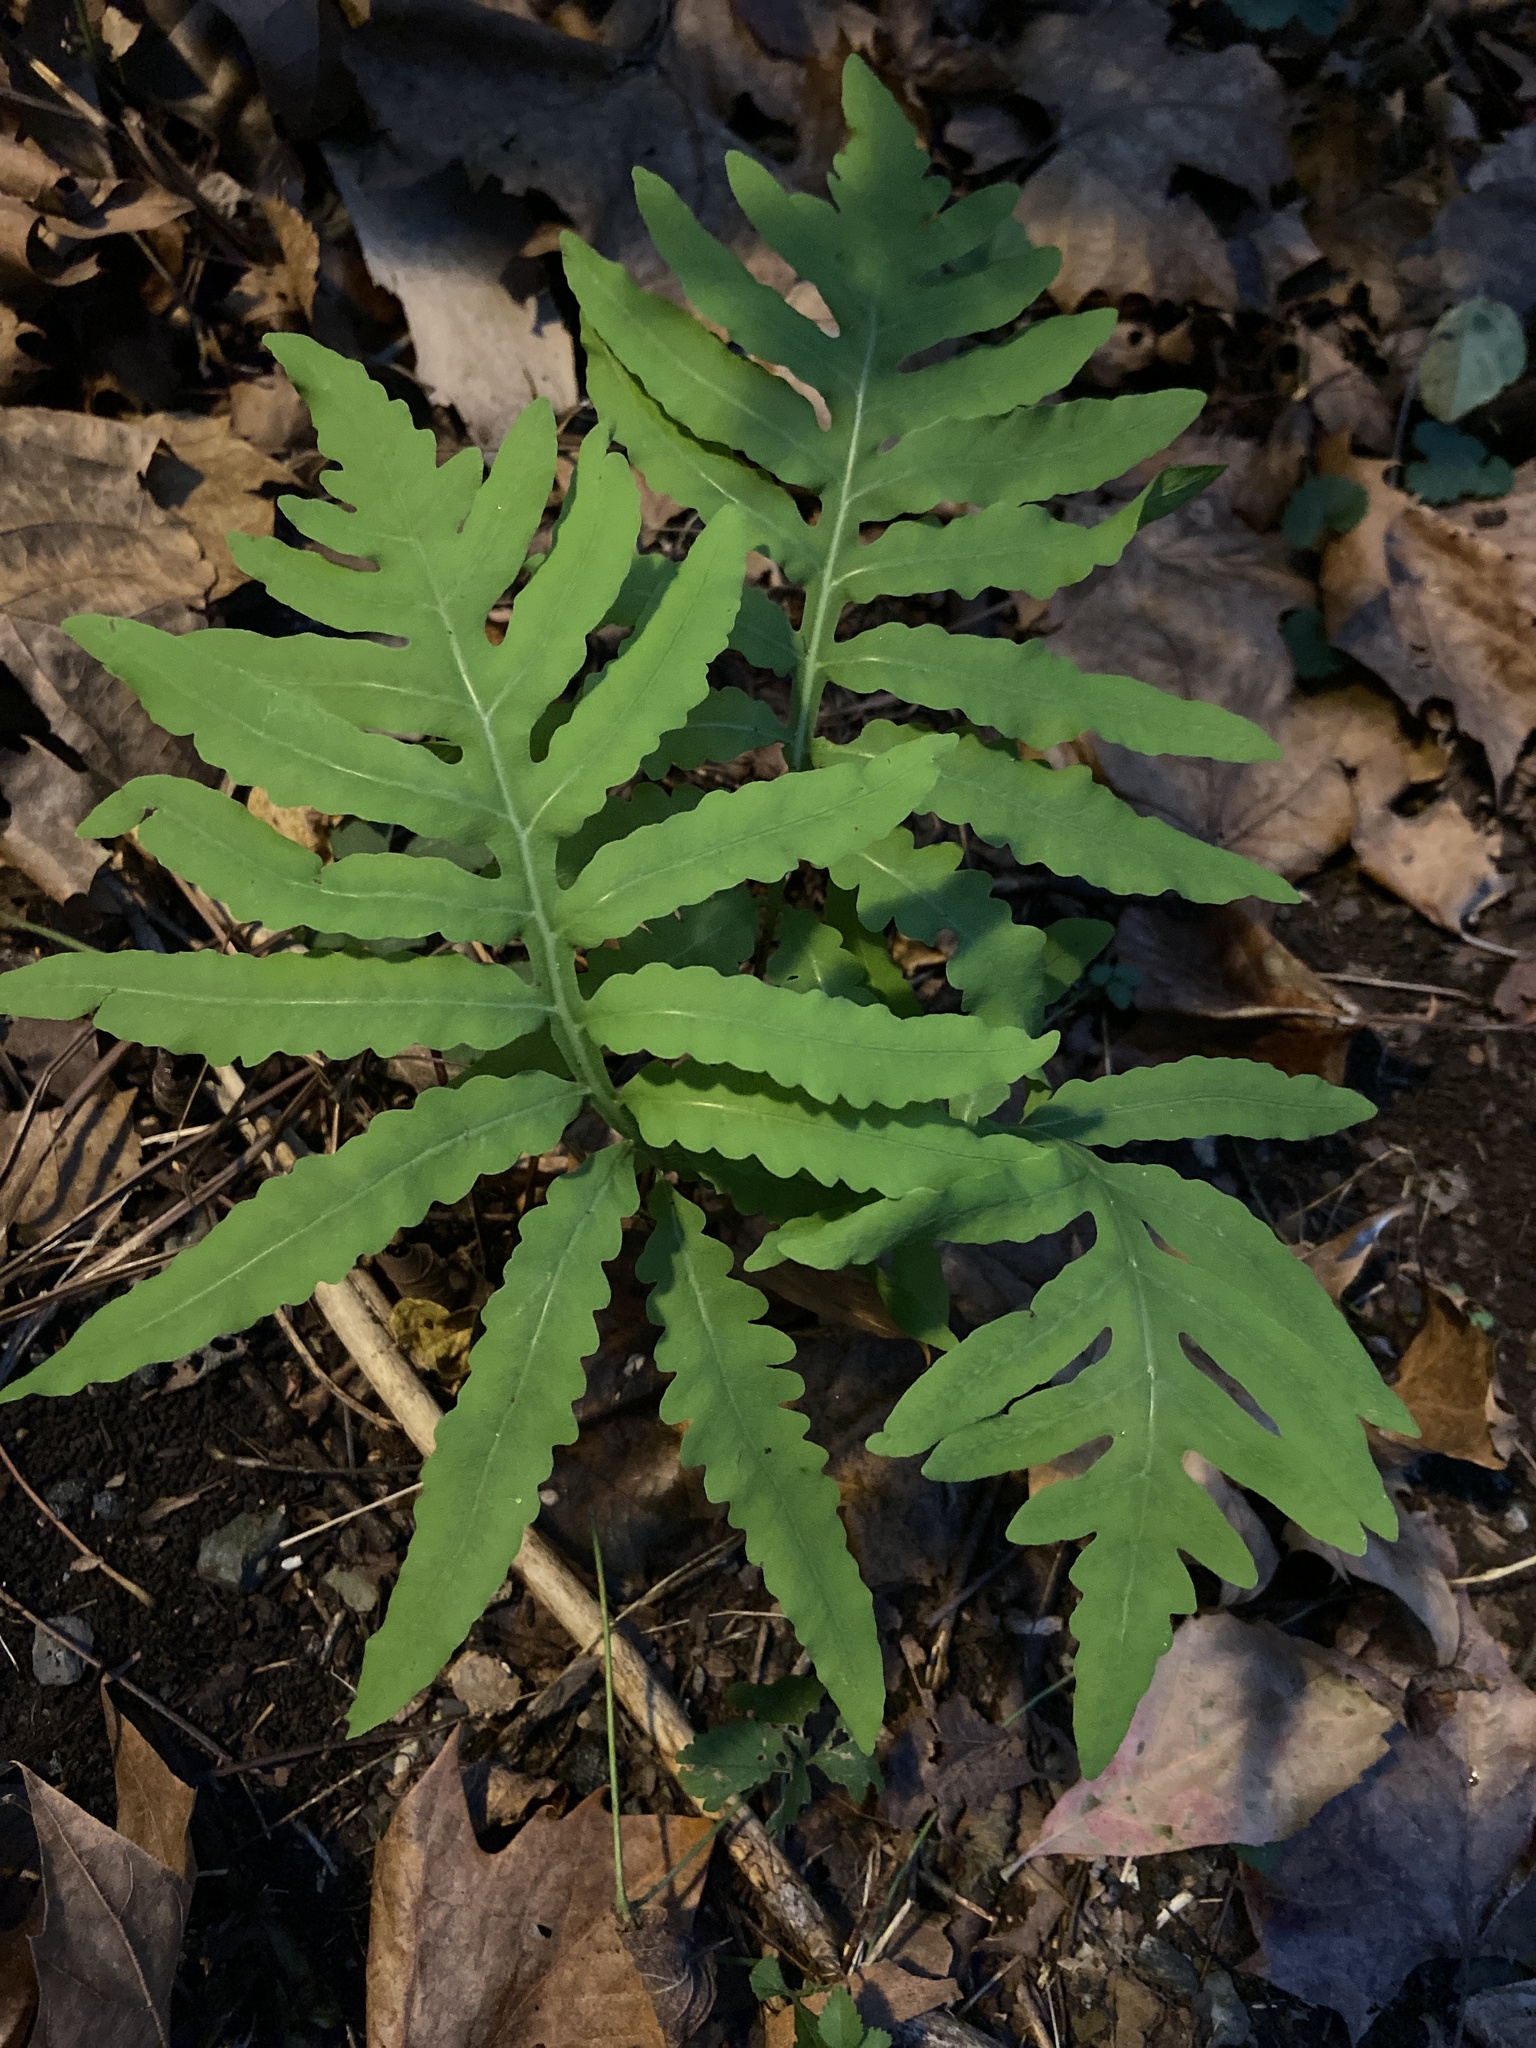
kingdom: Plantae
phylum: Tracheophyta
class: Polypodiopsida
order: Polypodiales
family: Onocleaceae
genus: Onoclea
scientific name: Onoclea sensibilis
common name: Sensitive fern
